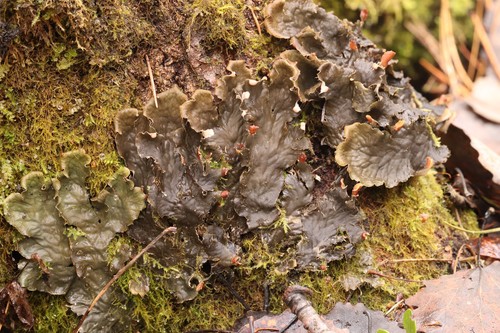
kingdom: Fungi
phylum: Ascomycota
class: Lecanoromycetes
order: Peltigerales
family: Peltigeraceae
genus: Peltigera
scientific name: Peltigera
